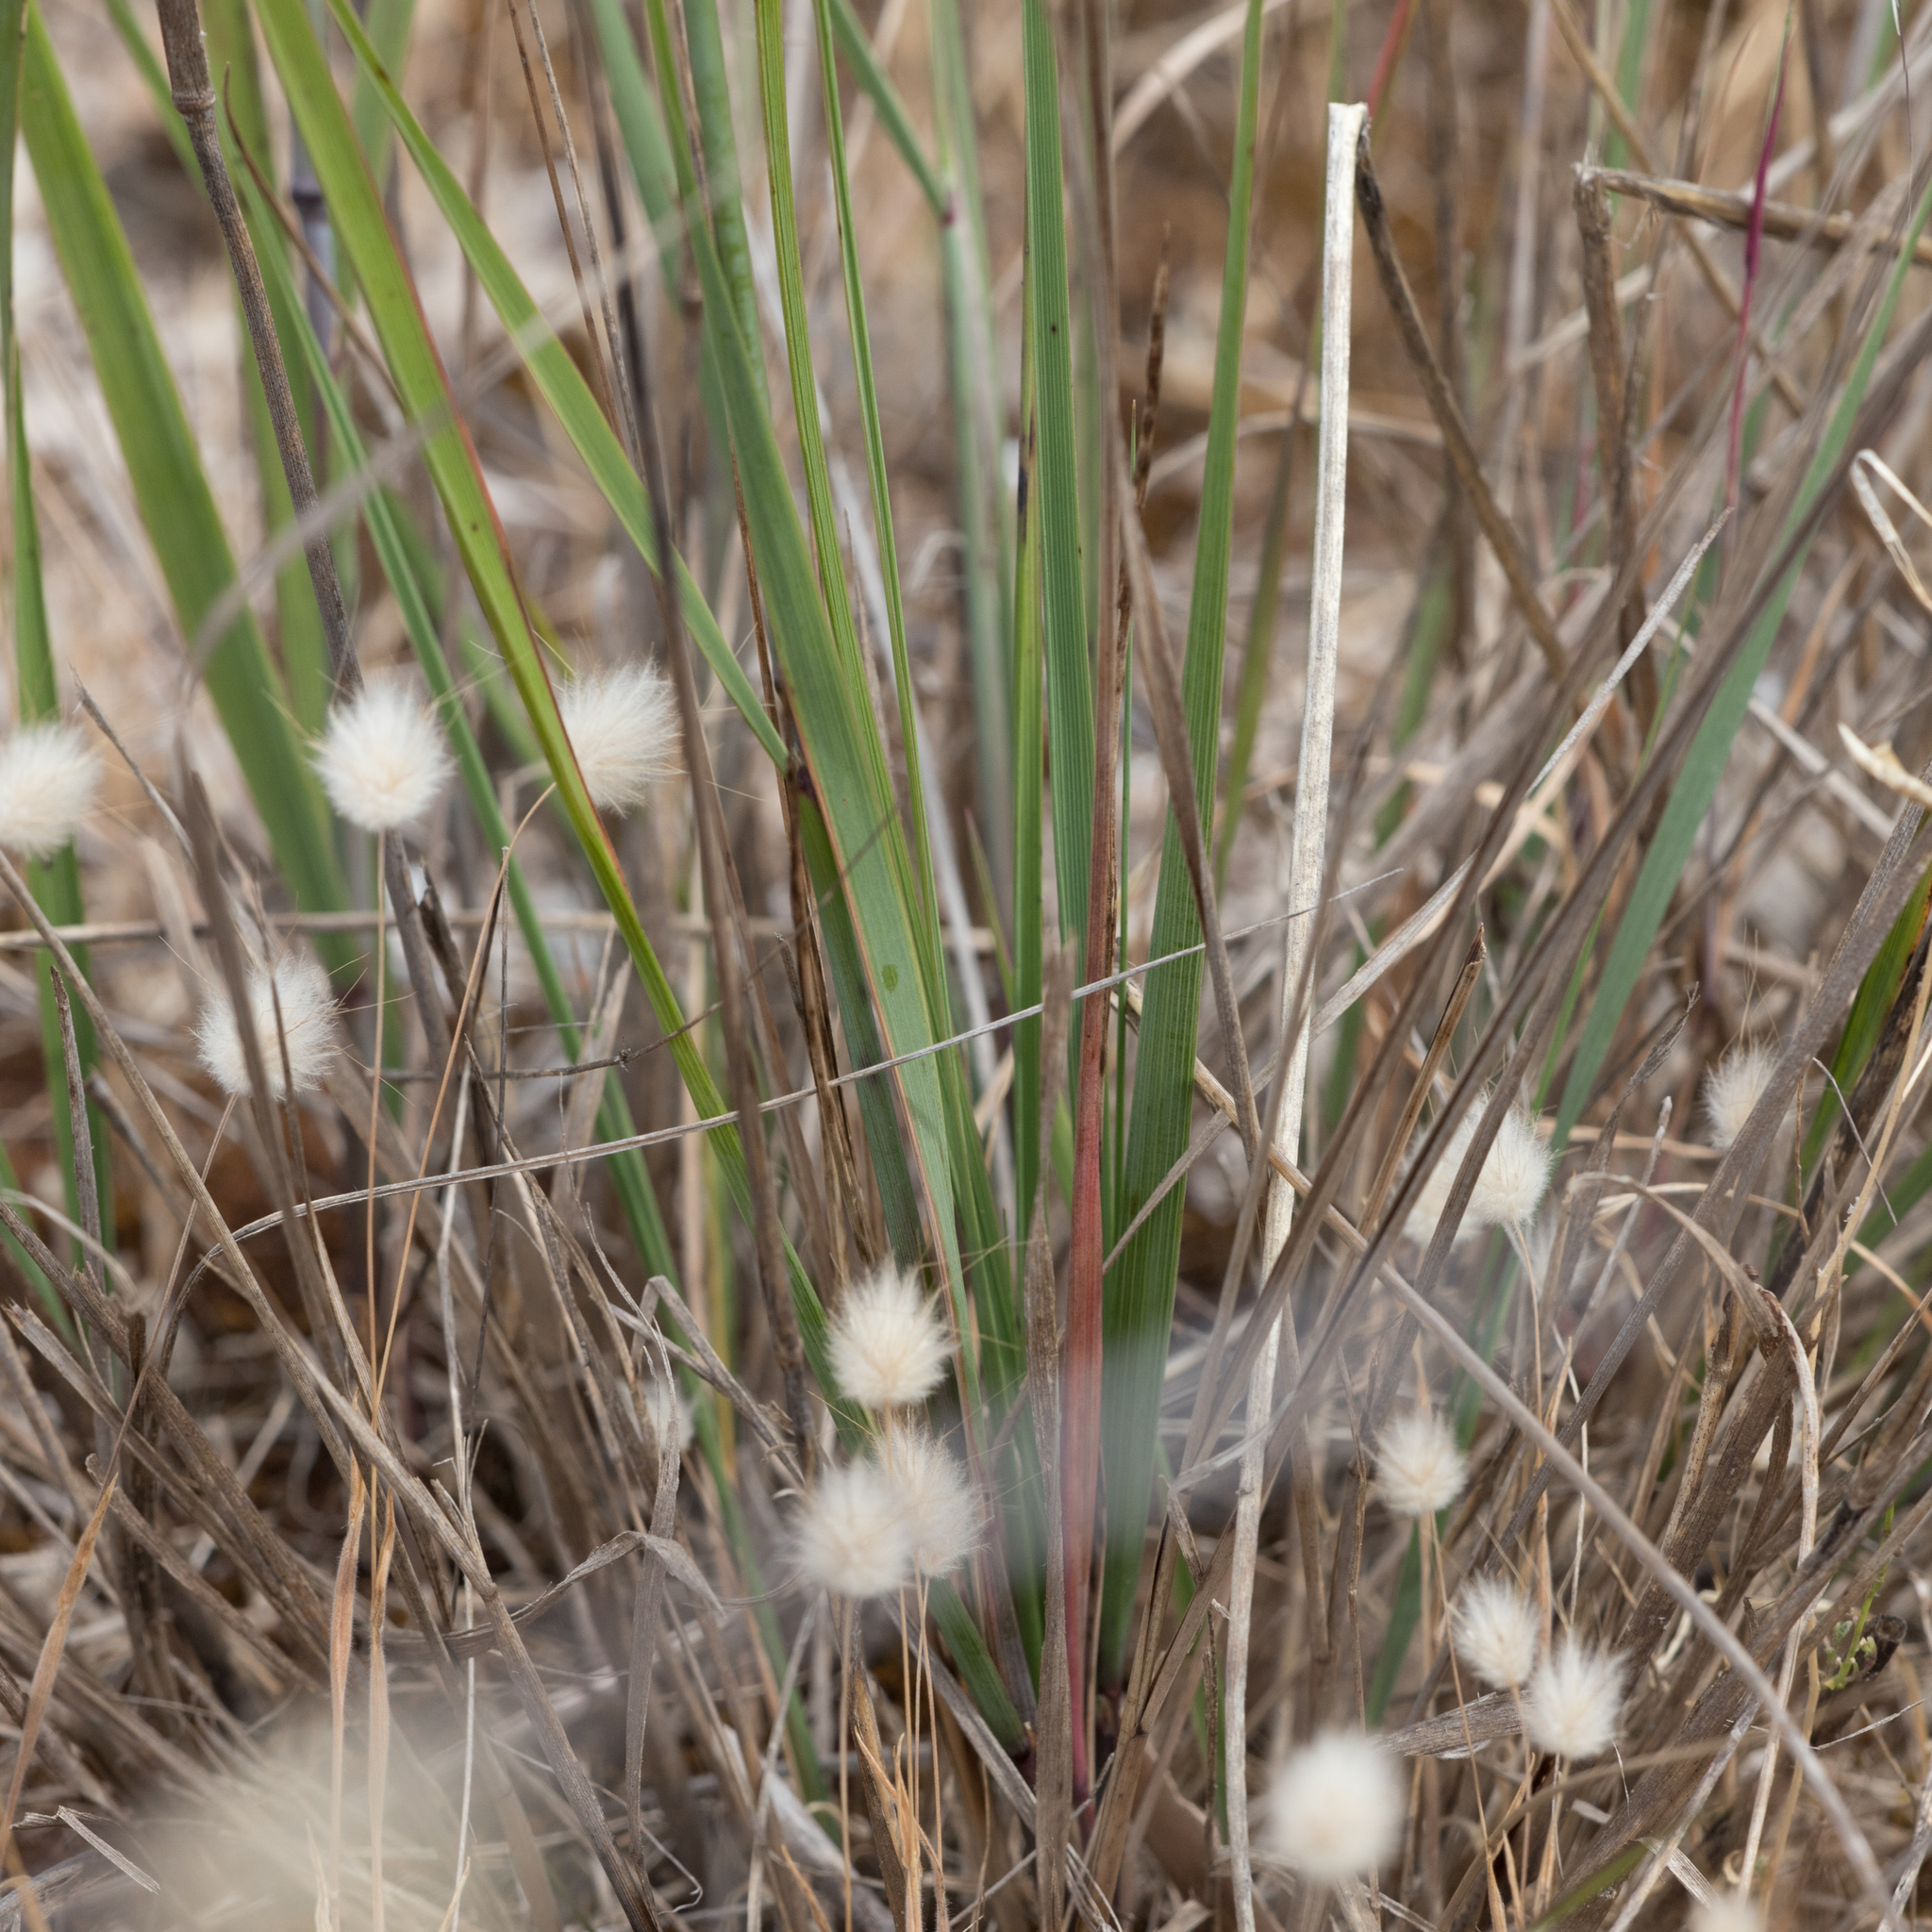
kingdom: Plantae
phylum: Tracheophyta
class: Liliopsida
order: Poales
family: Poaceae
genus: Austrostipa
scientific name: Austrostipa acrociliata
